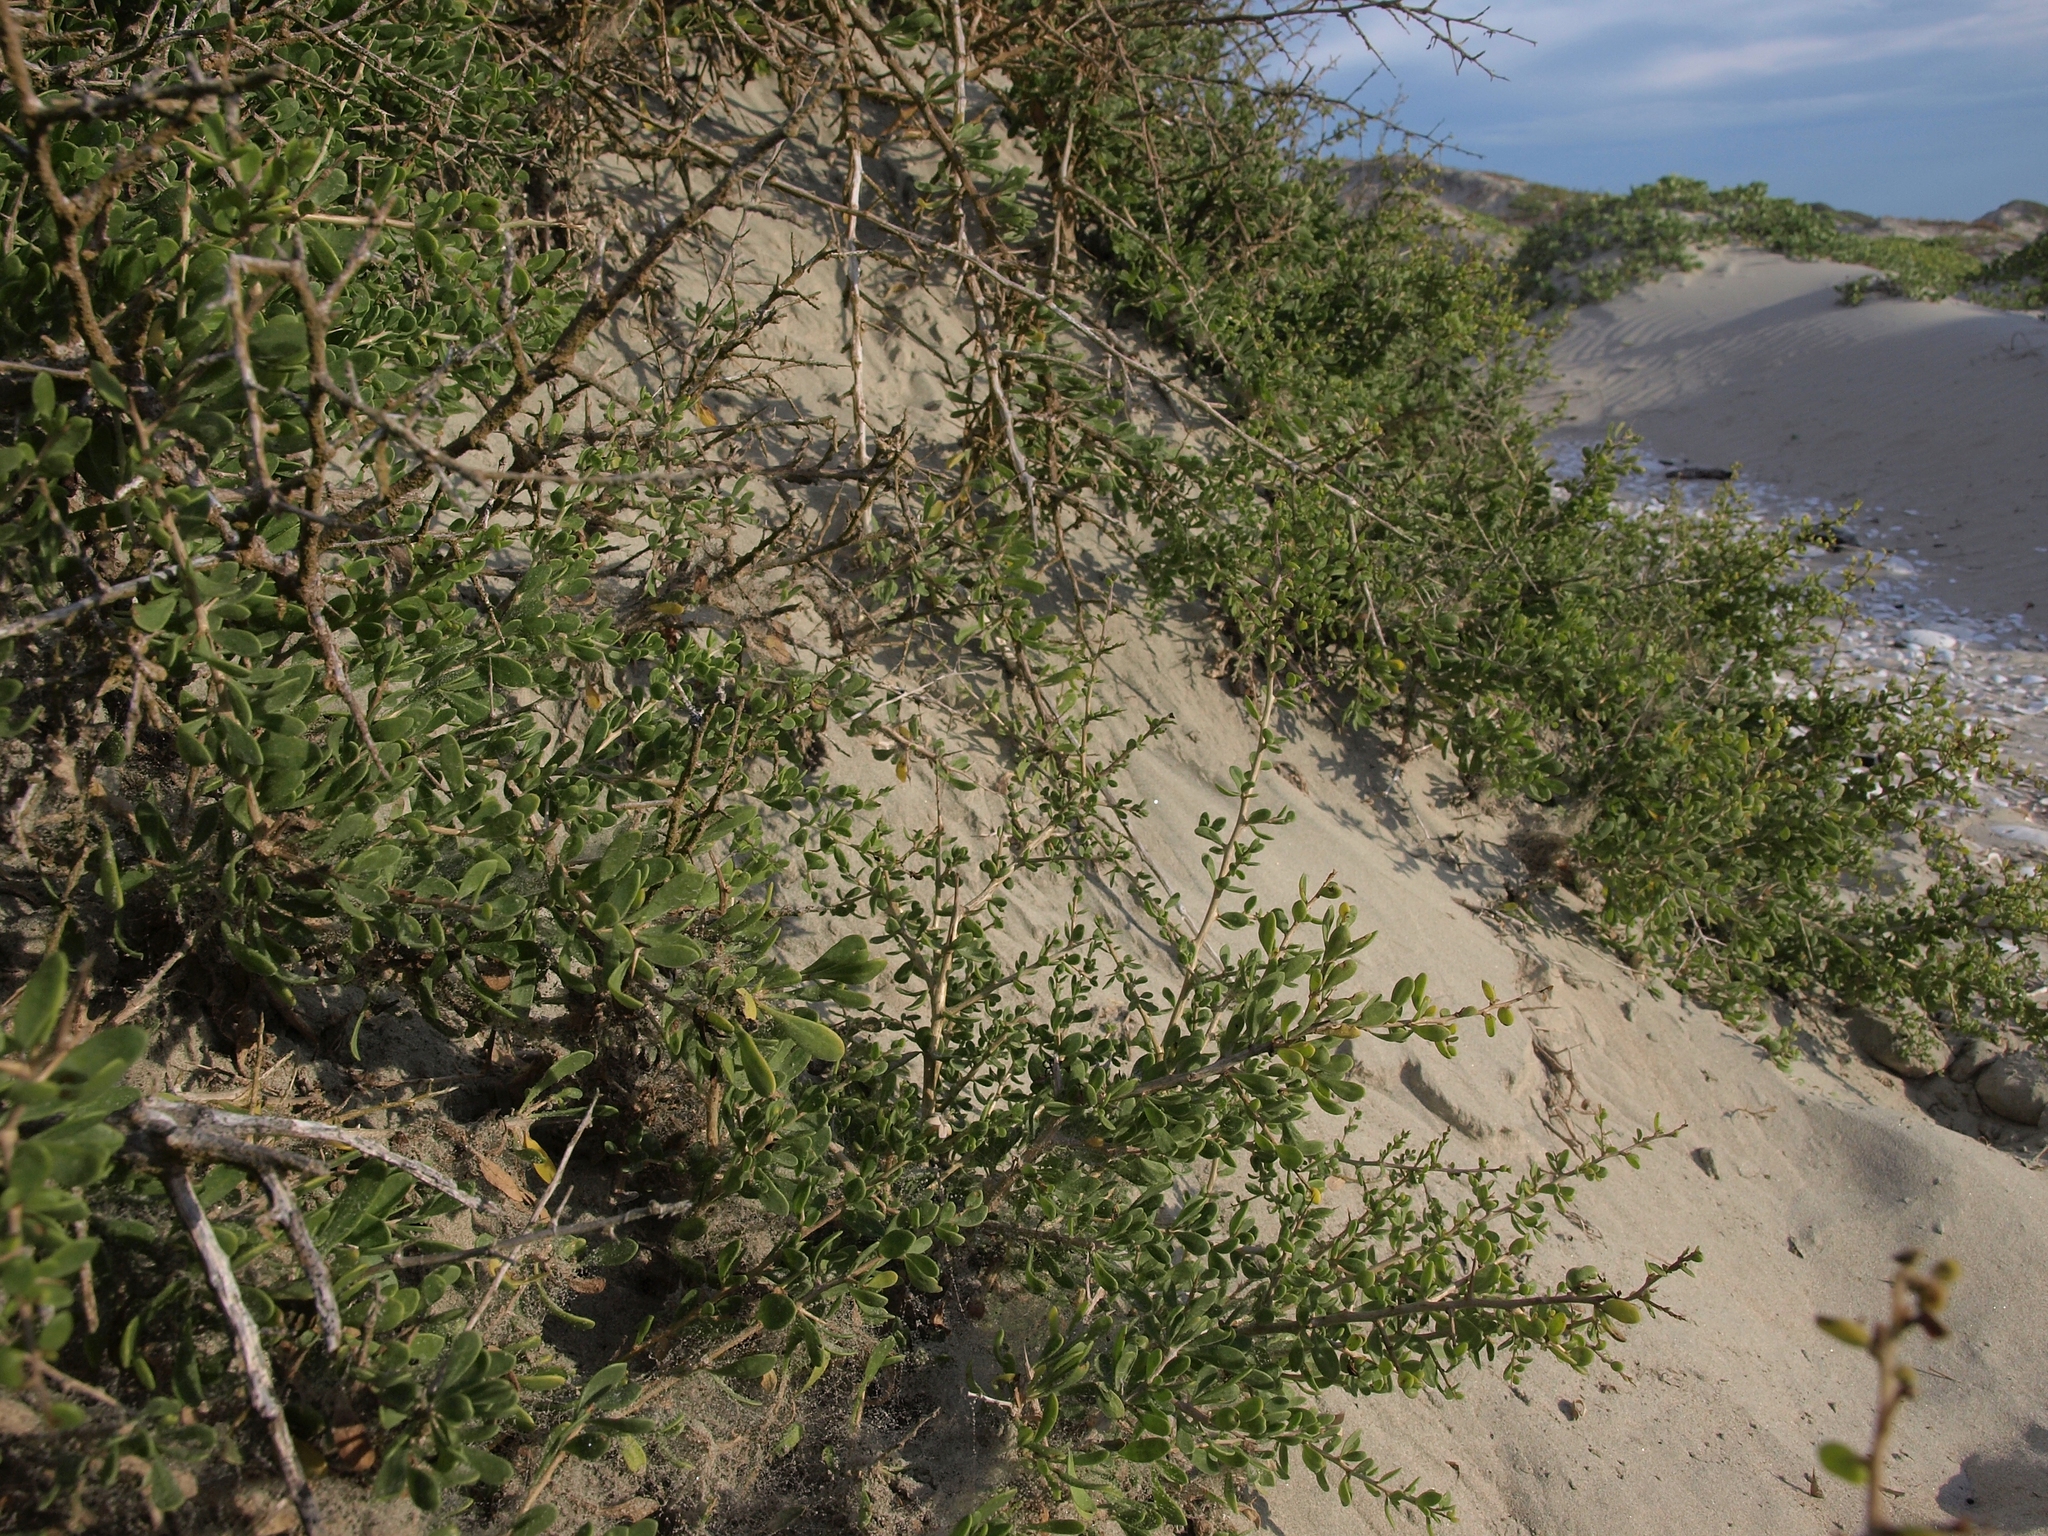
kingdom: Plantae
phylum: Tracheophyta
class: Magnoliopsida
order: Solanales
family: Solanaceae
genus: Lycium
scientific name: Lycium brevipes
